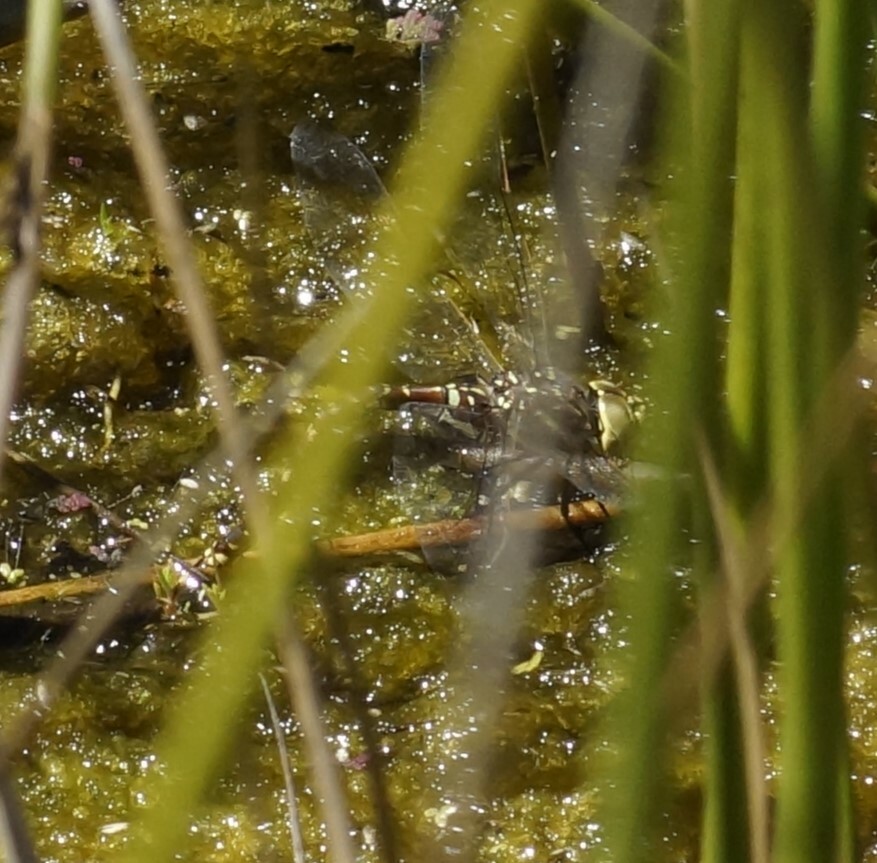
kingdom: Animalia
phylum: Arthropoda
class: Insecta
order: Odonata
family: Aeshnidae
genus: Aeshna
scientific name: Aeshna brevistyla
